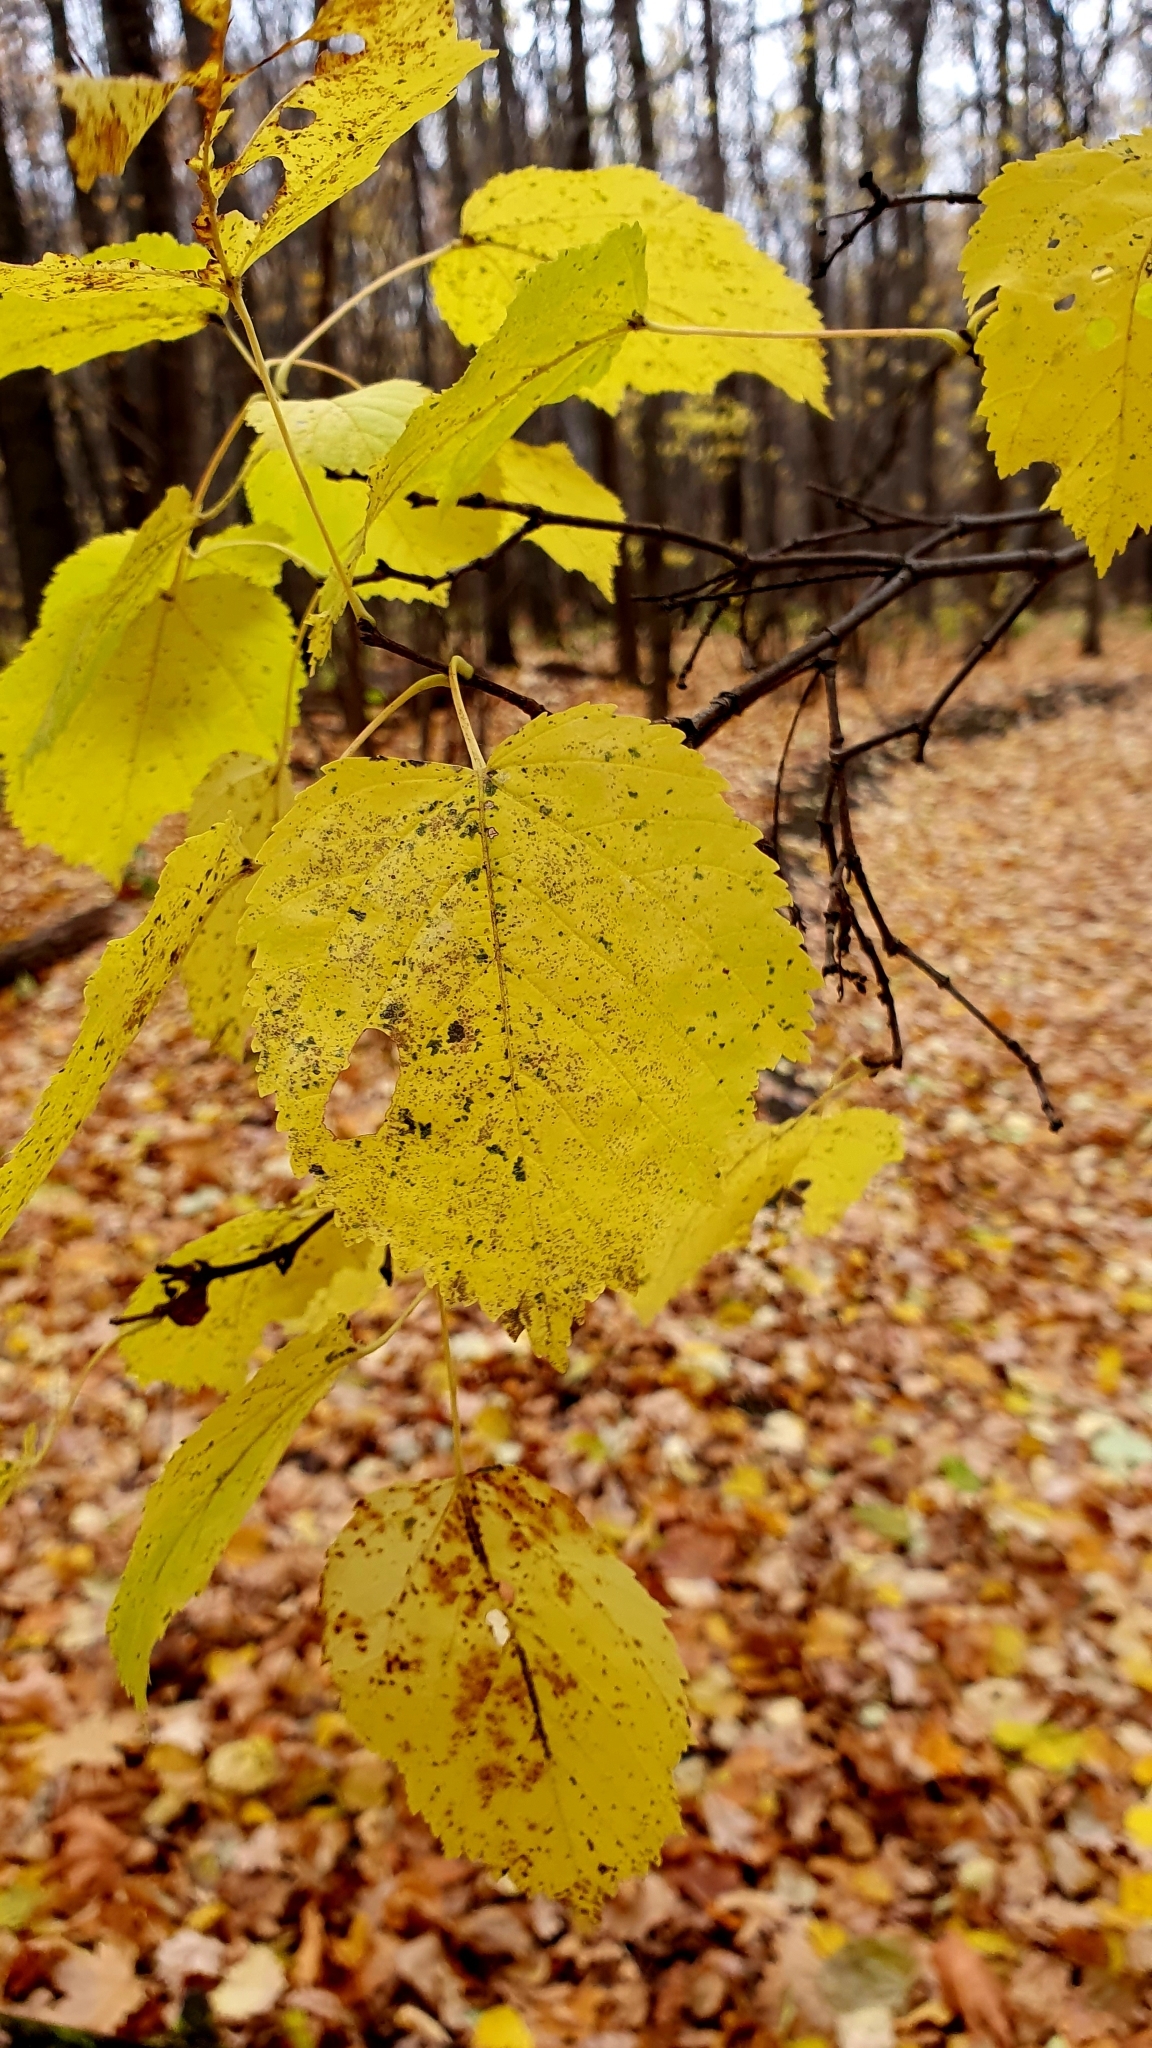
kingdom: Plantae
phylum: Tracheophyta
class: Magnoliopsida
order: Sapindales
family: Sapindaceae
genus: Acer
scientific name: Acer tataricum
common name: Tartar maple
